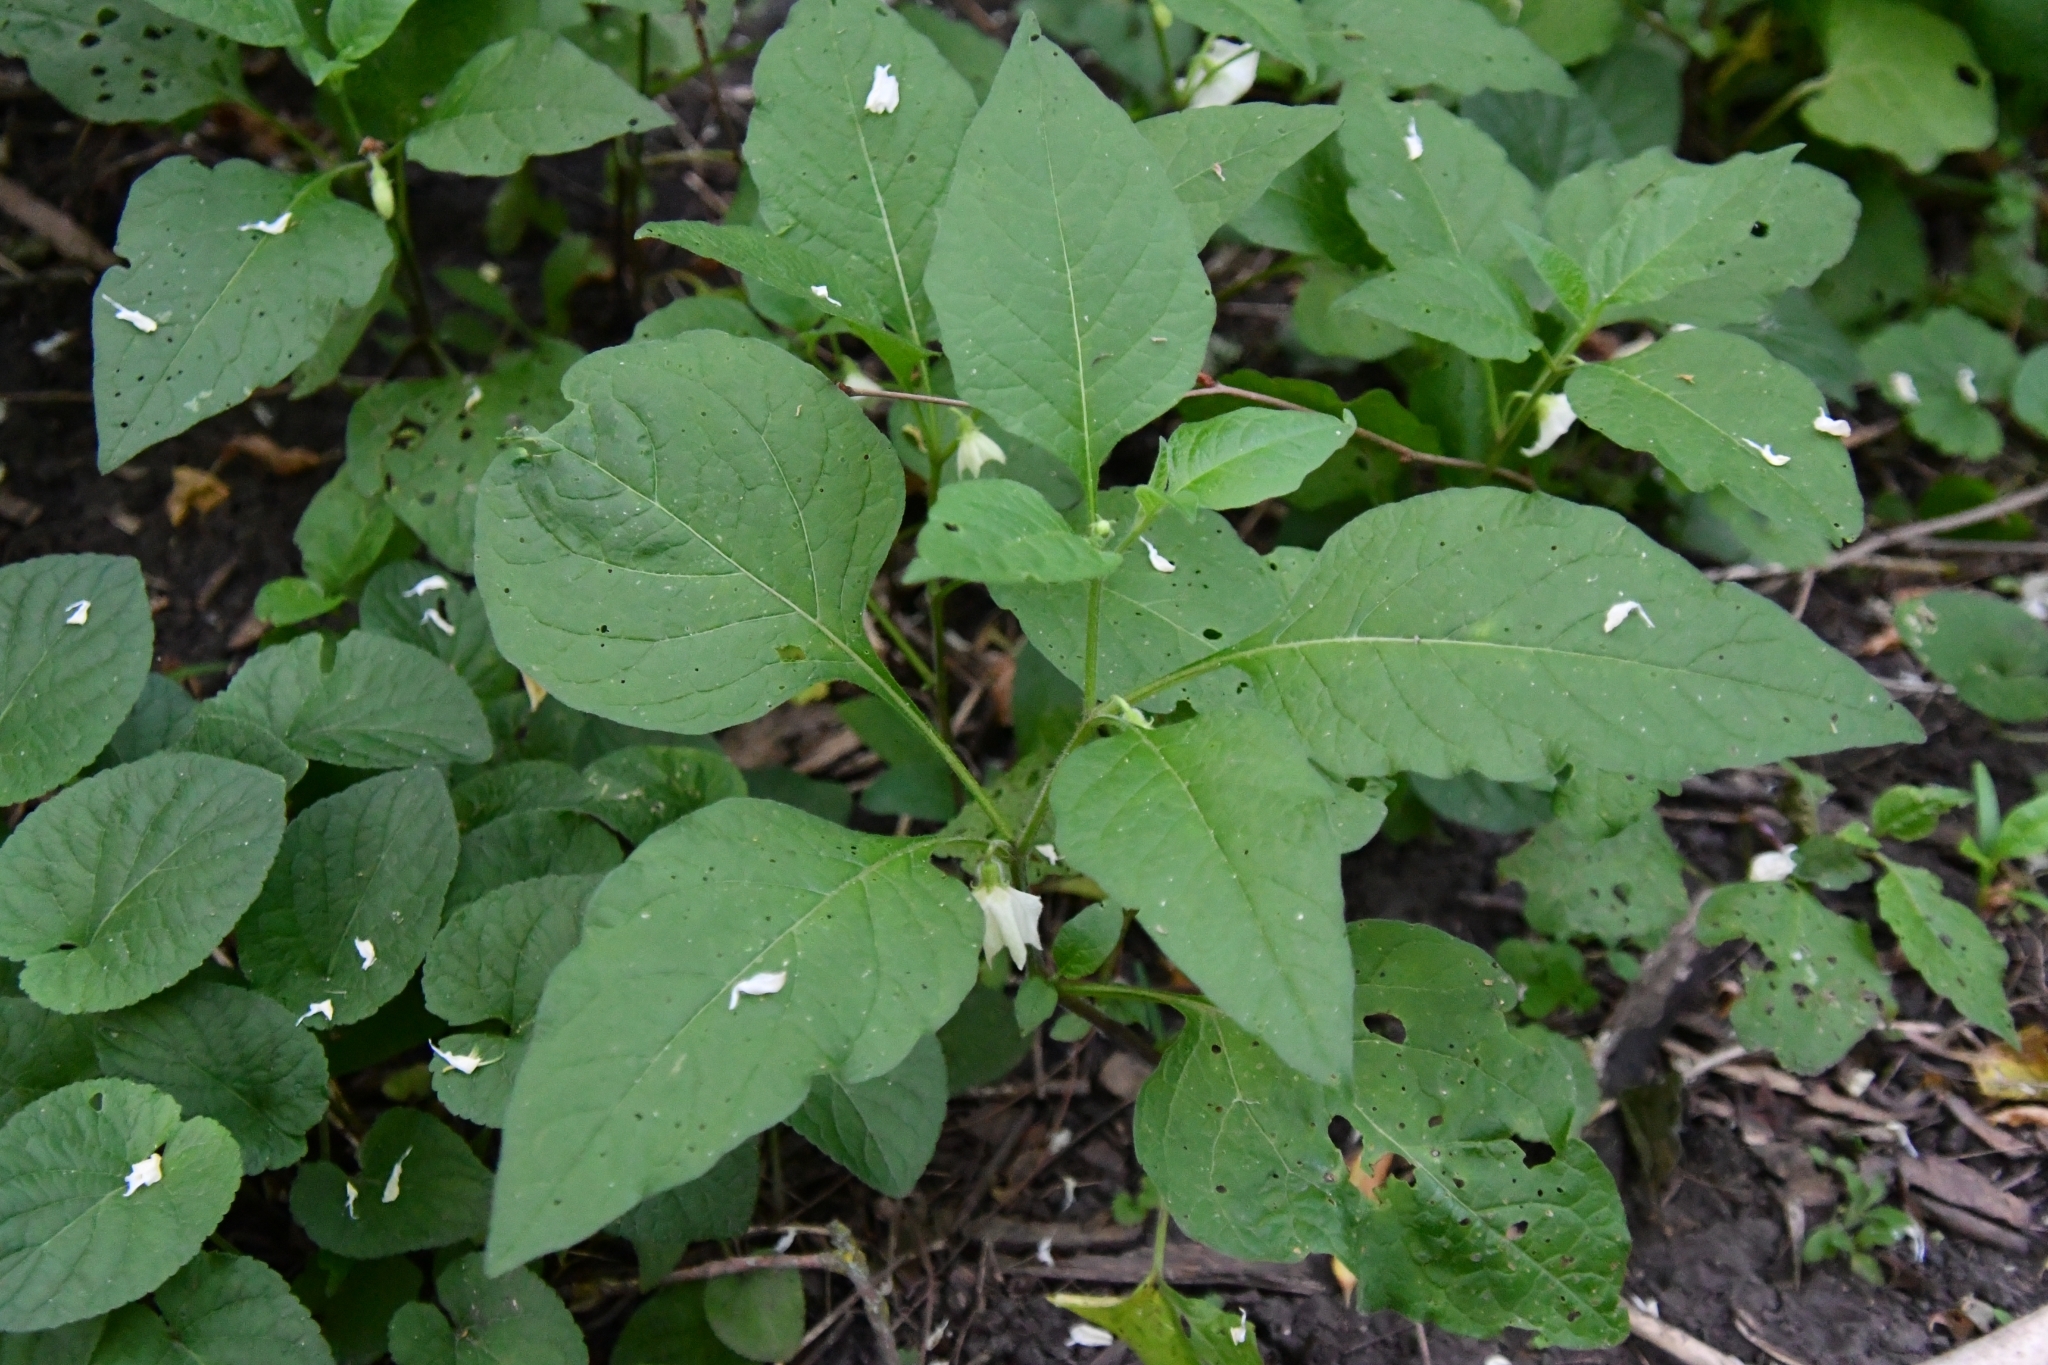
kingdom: Plantae
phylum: Tracheophyta
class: Magnoliopsida
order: Solanales
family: Solanaceae
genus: Alkekengi
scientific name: Alkekengi officinarum
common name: Japanese-lantern
